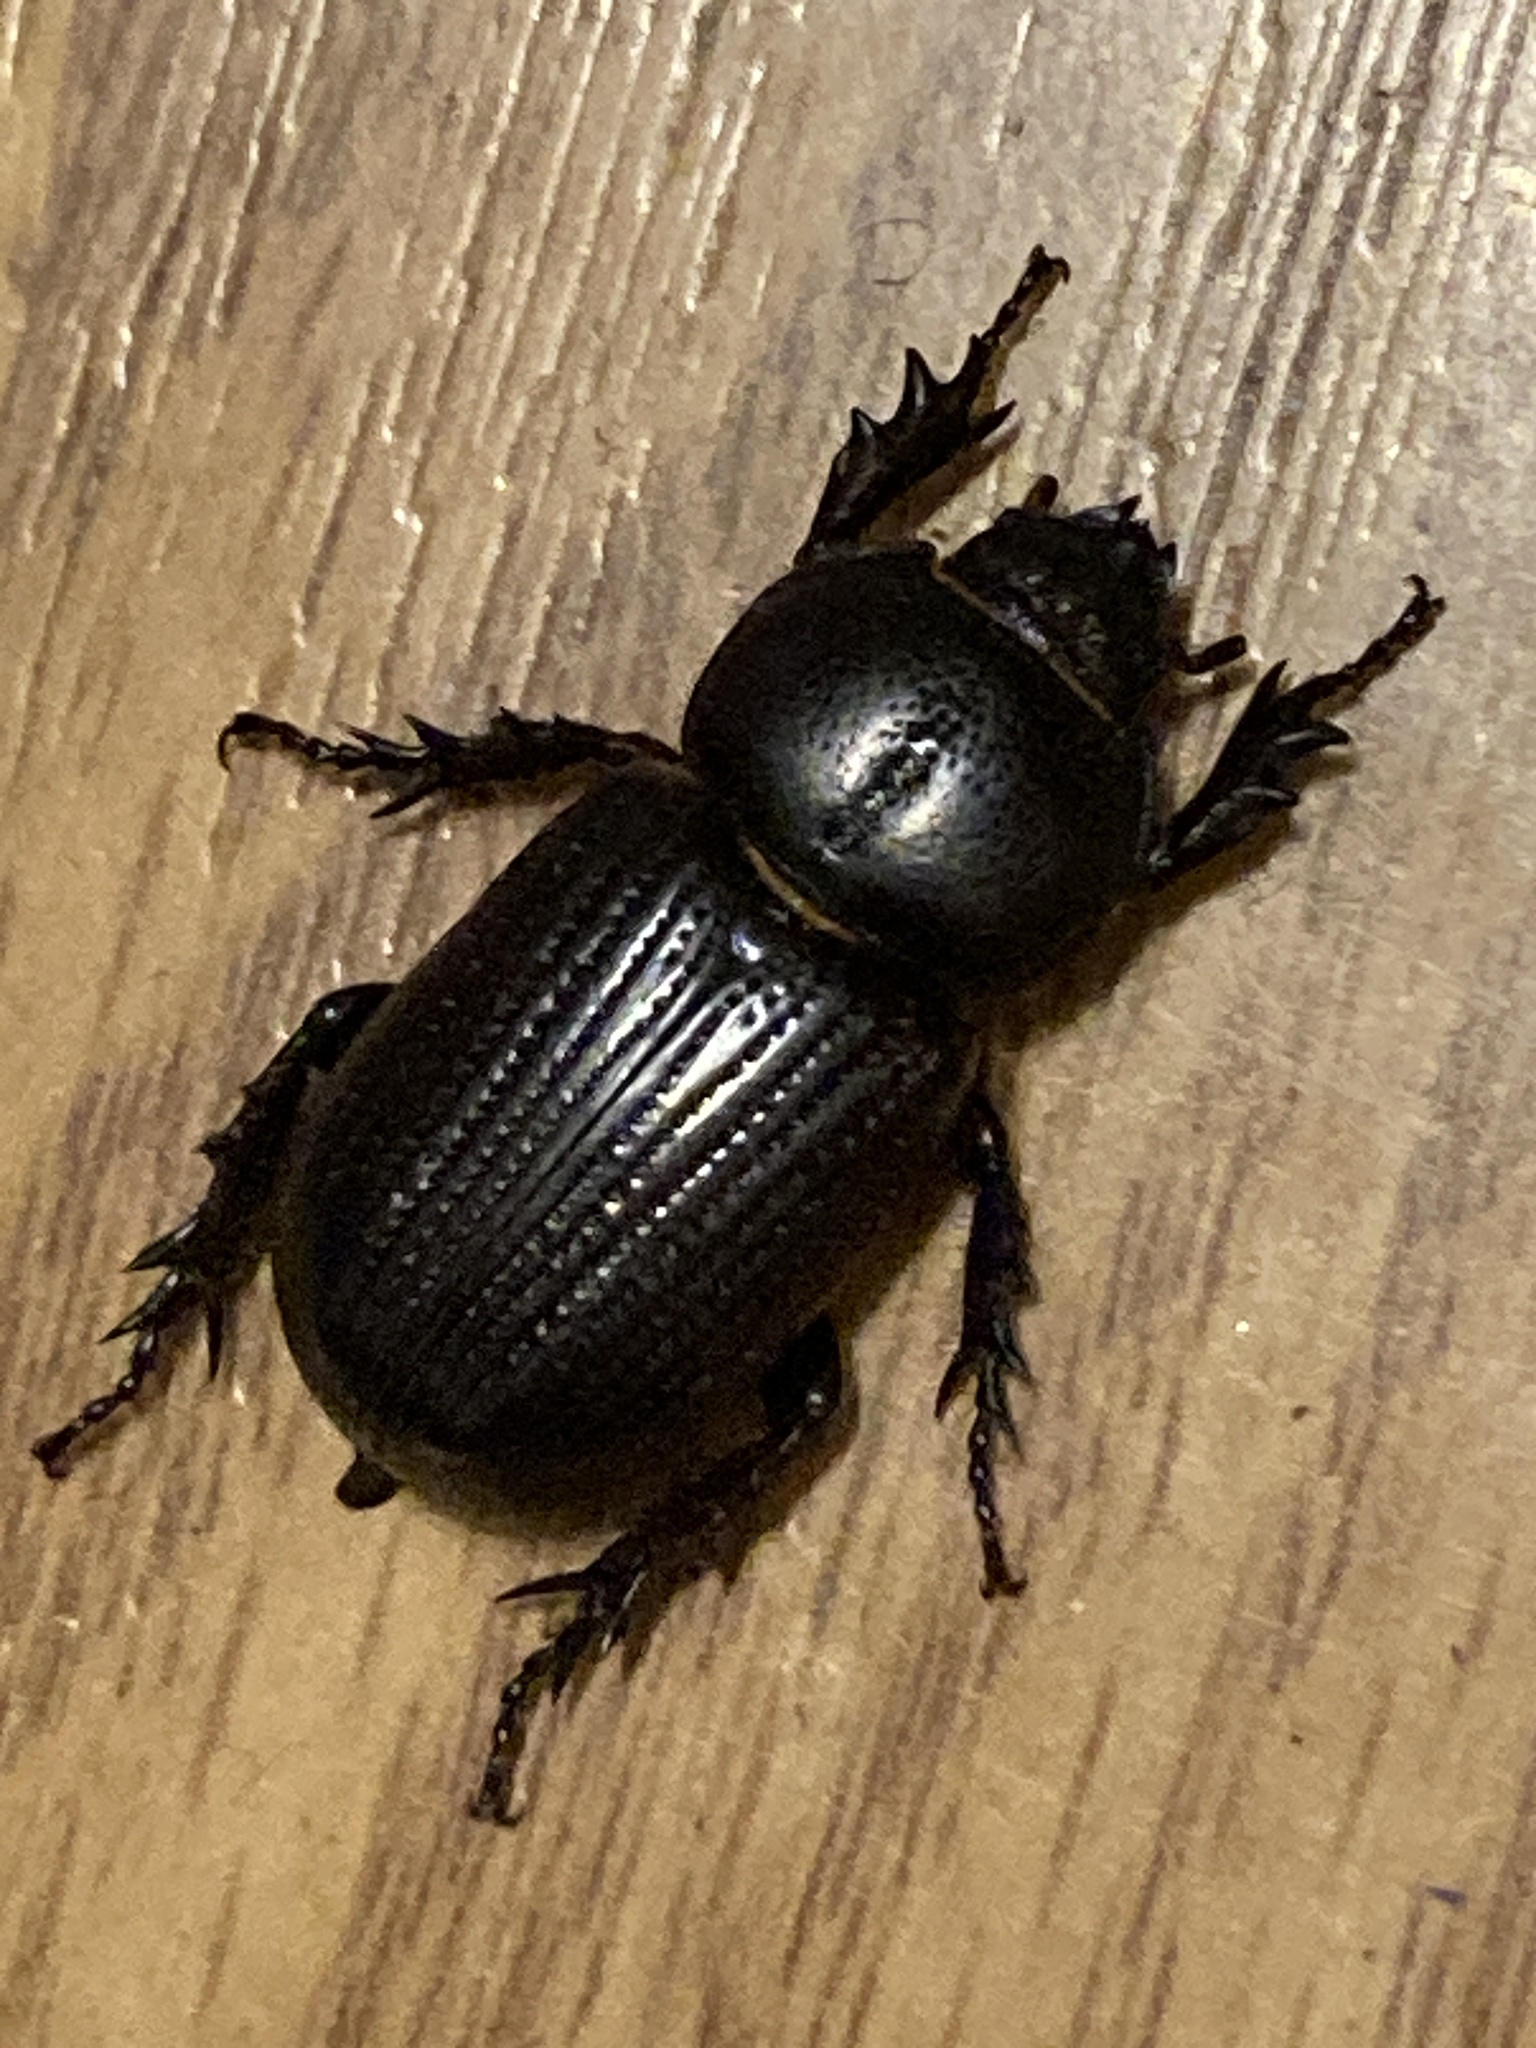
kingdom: Animalia
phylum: Arthropoda
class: Insecta
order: Coleoptera
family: Scarabaeidae
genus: Hemiphileurus
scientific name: Hemiphileurus illatus
